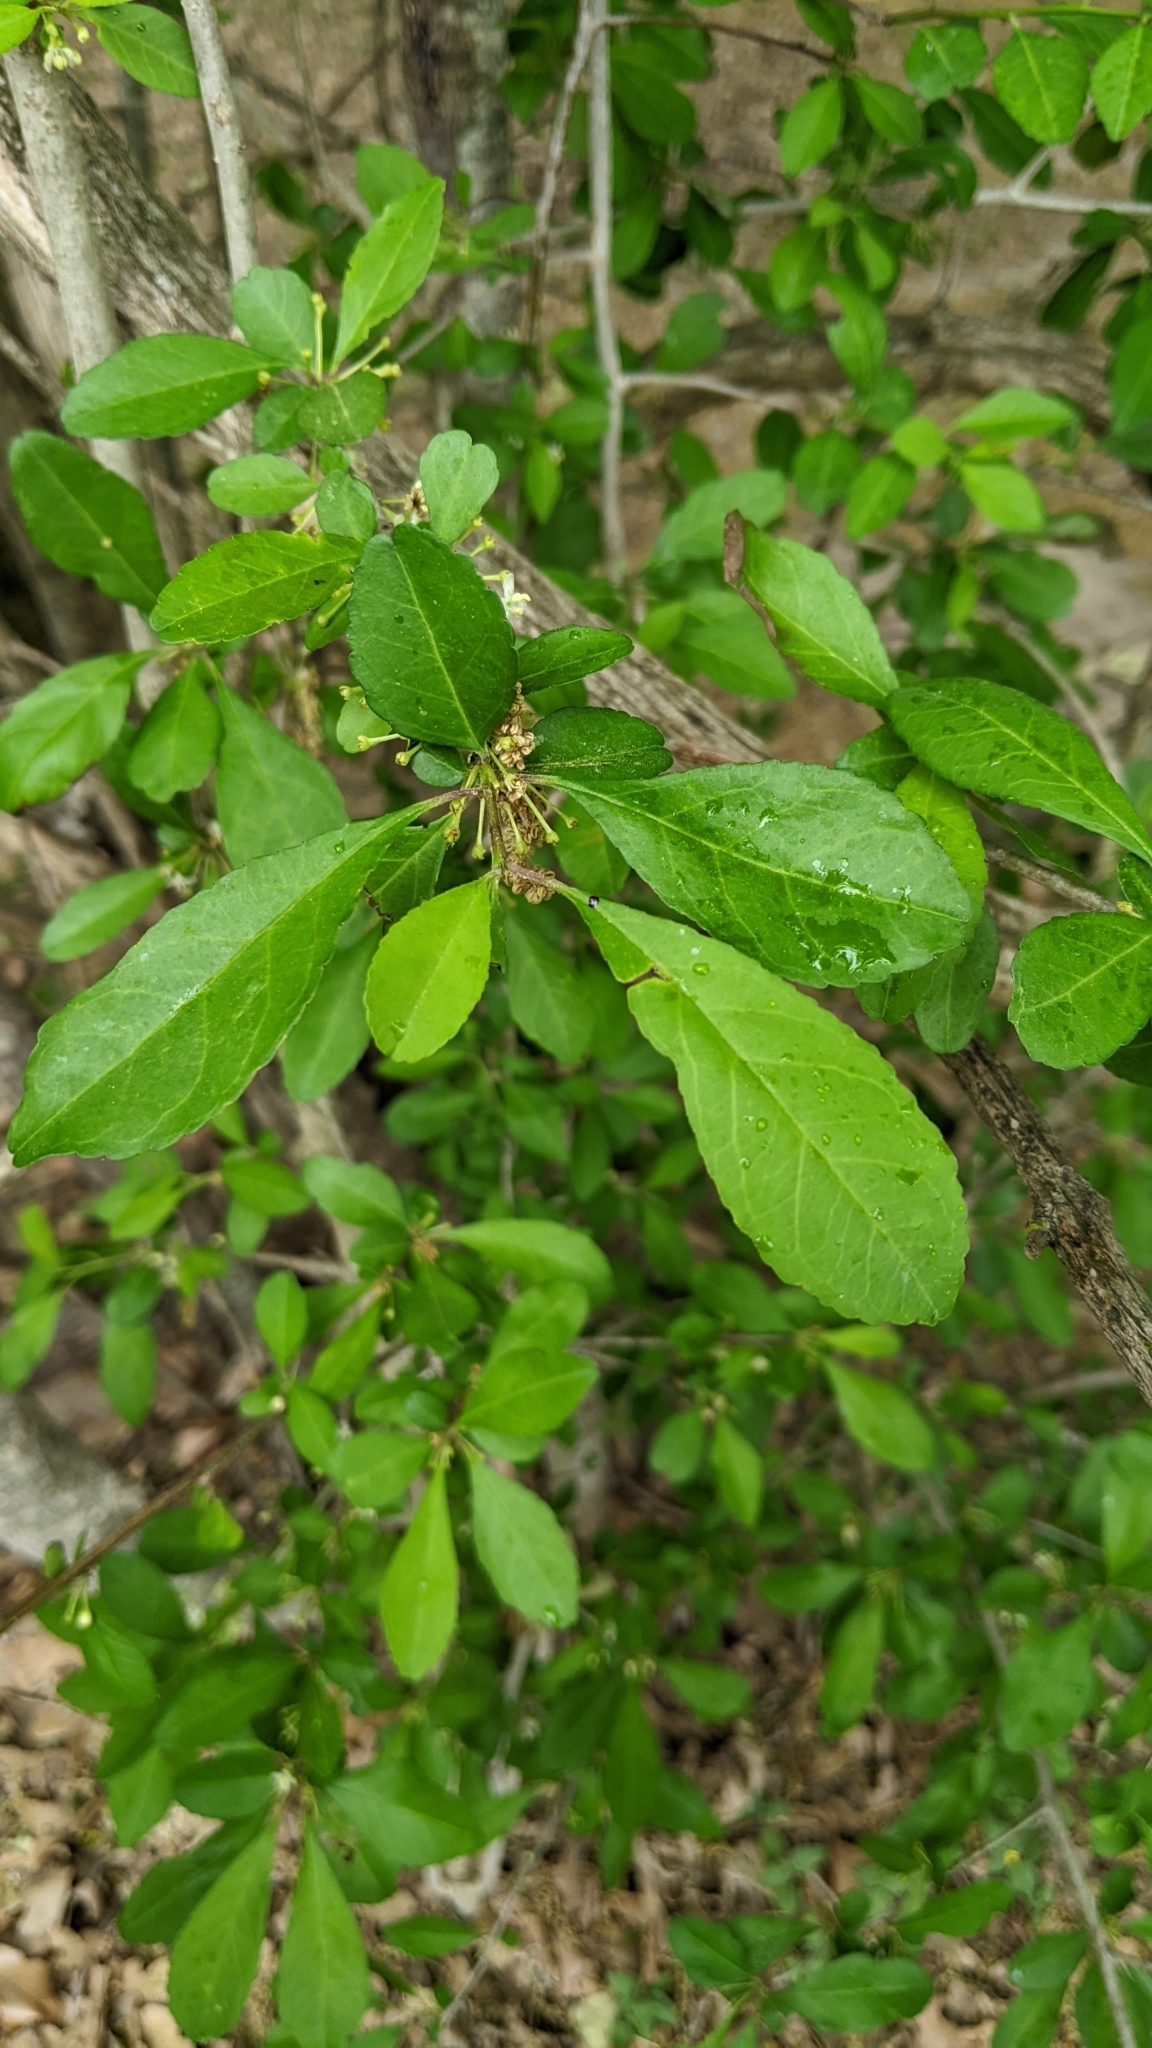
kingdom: Plantae
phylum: Tracheophyta
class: Magnoliopsida
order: Aquifoliales
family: Aquifoliaceae
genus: Ilex
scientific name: Ilex decidua
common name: Possum-haw
